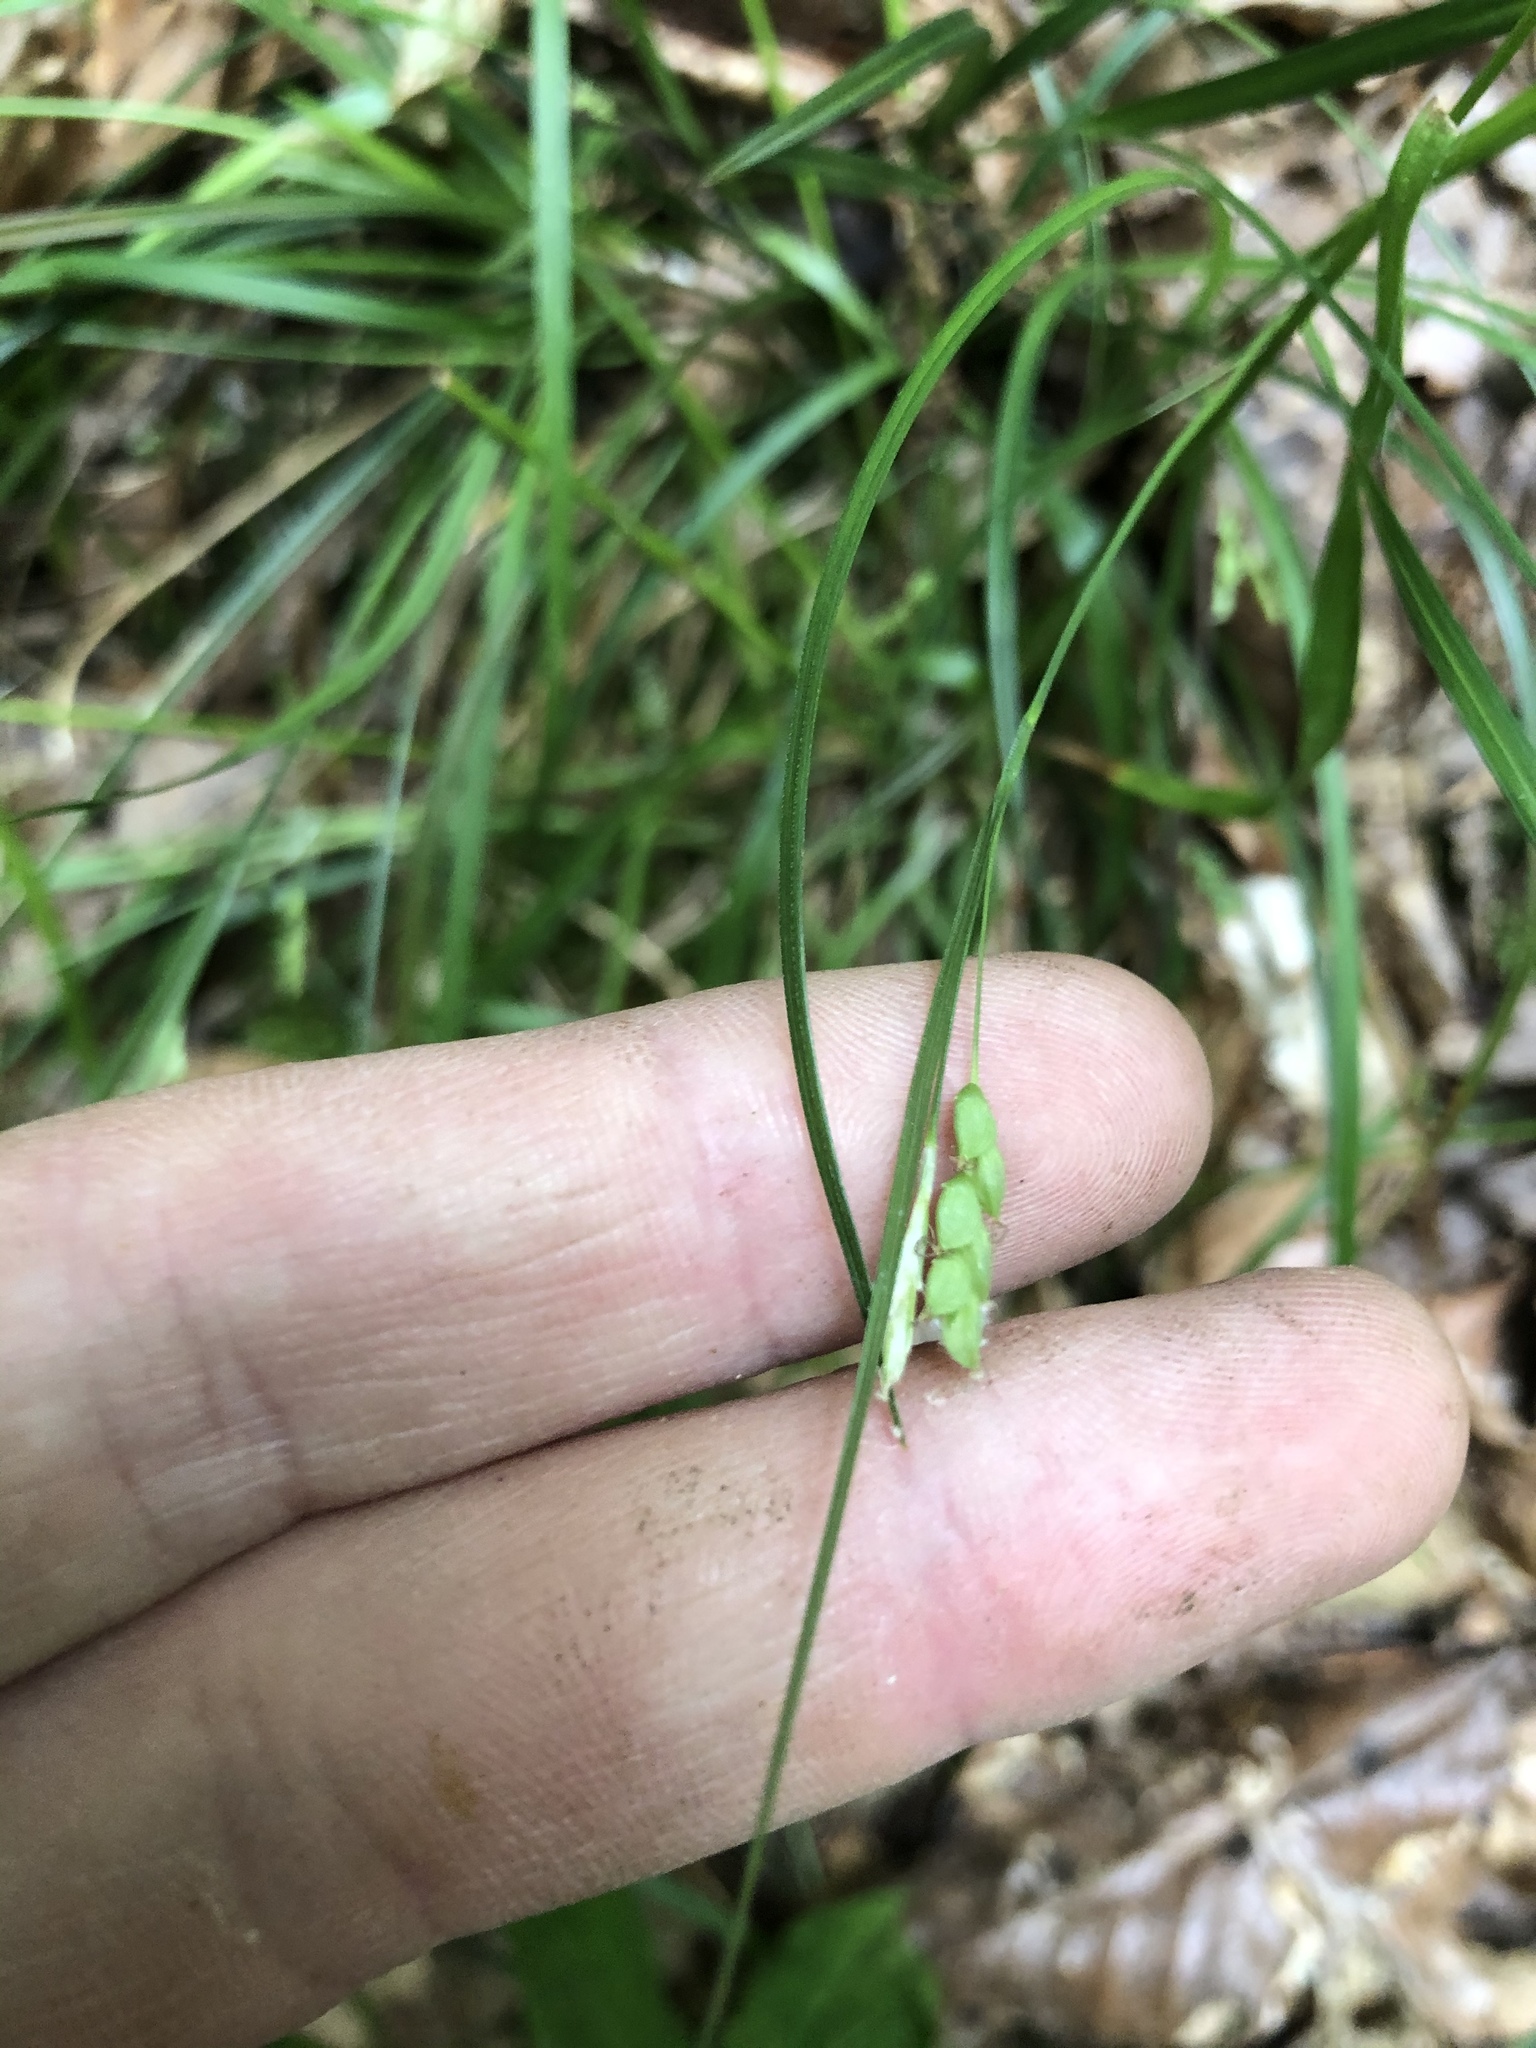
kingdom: Plantae
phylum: Tracheophyta
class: Liliopsida
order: Poales
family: Cyperaceae
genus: Carex
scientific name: Carex digitalis
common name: Slender wood sedge
